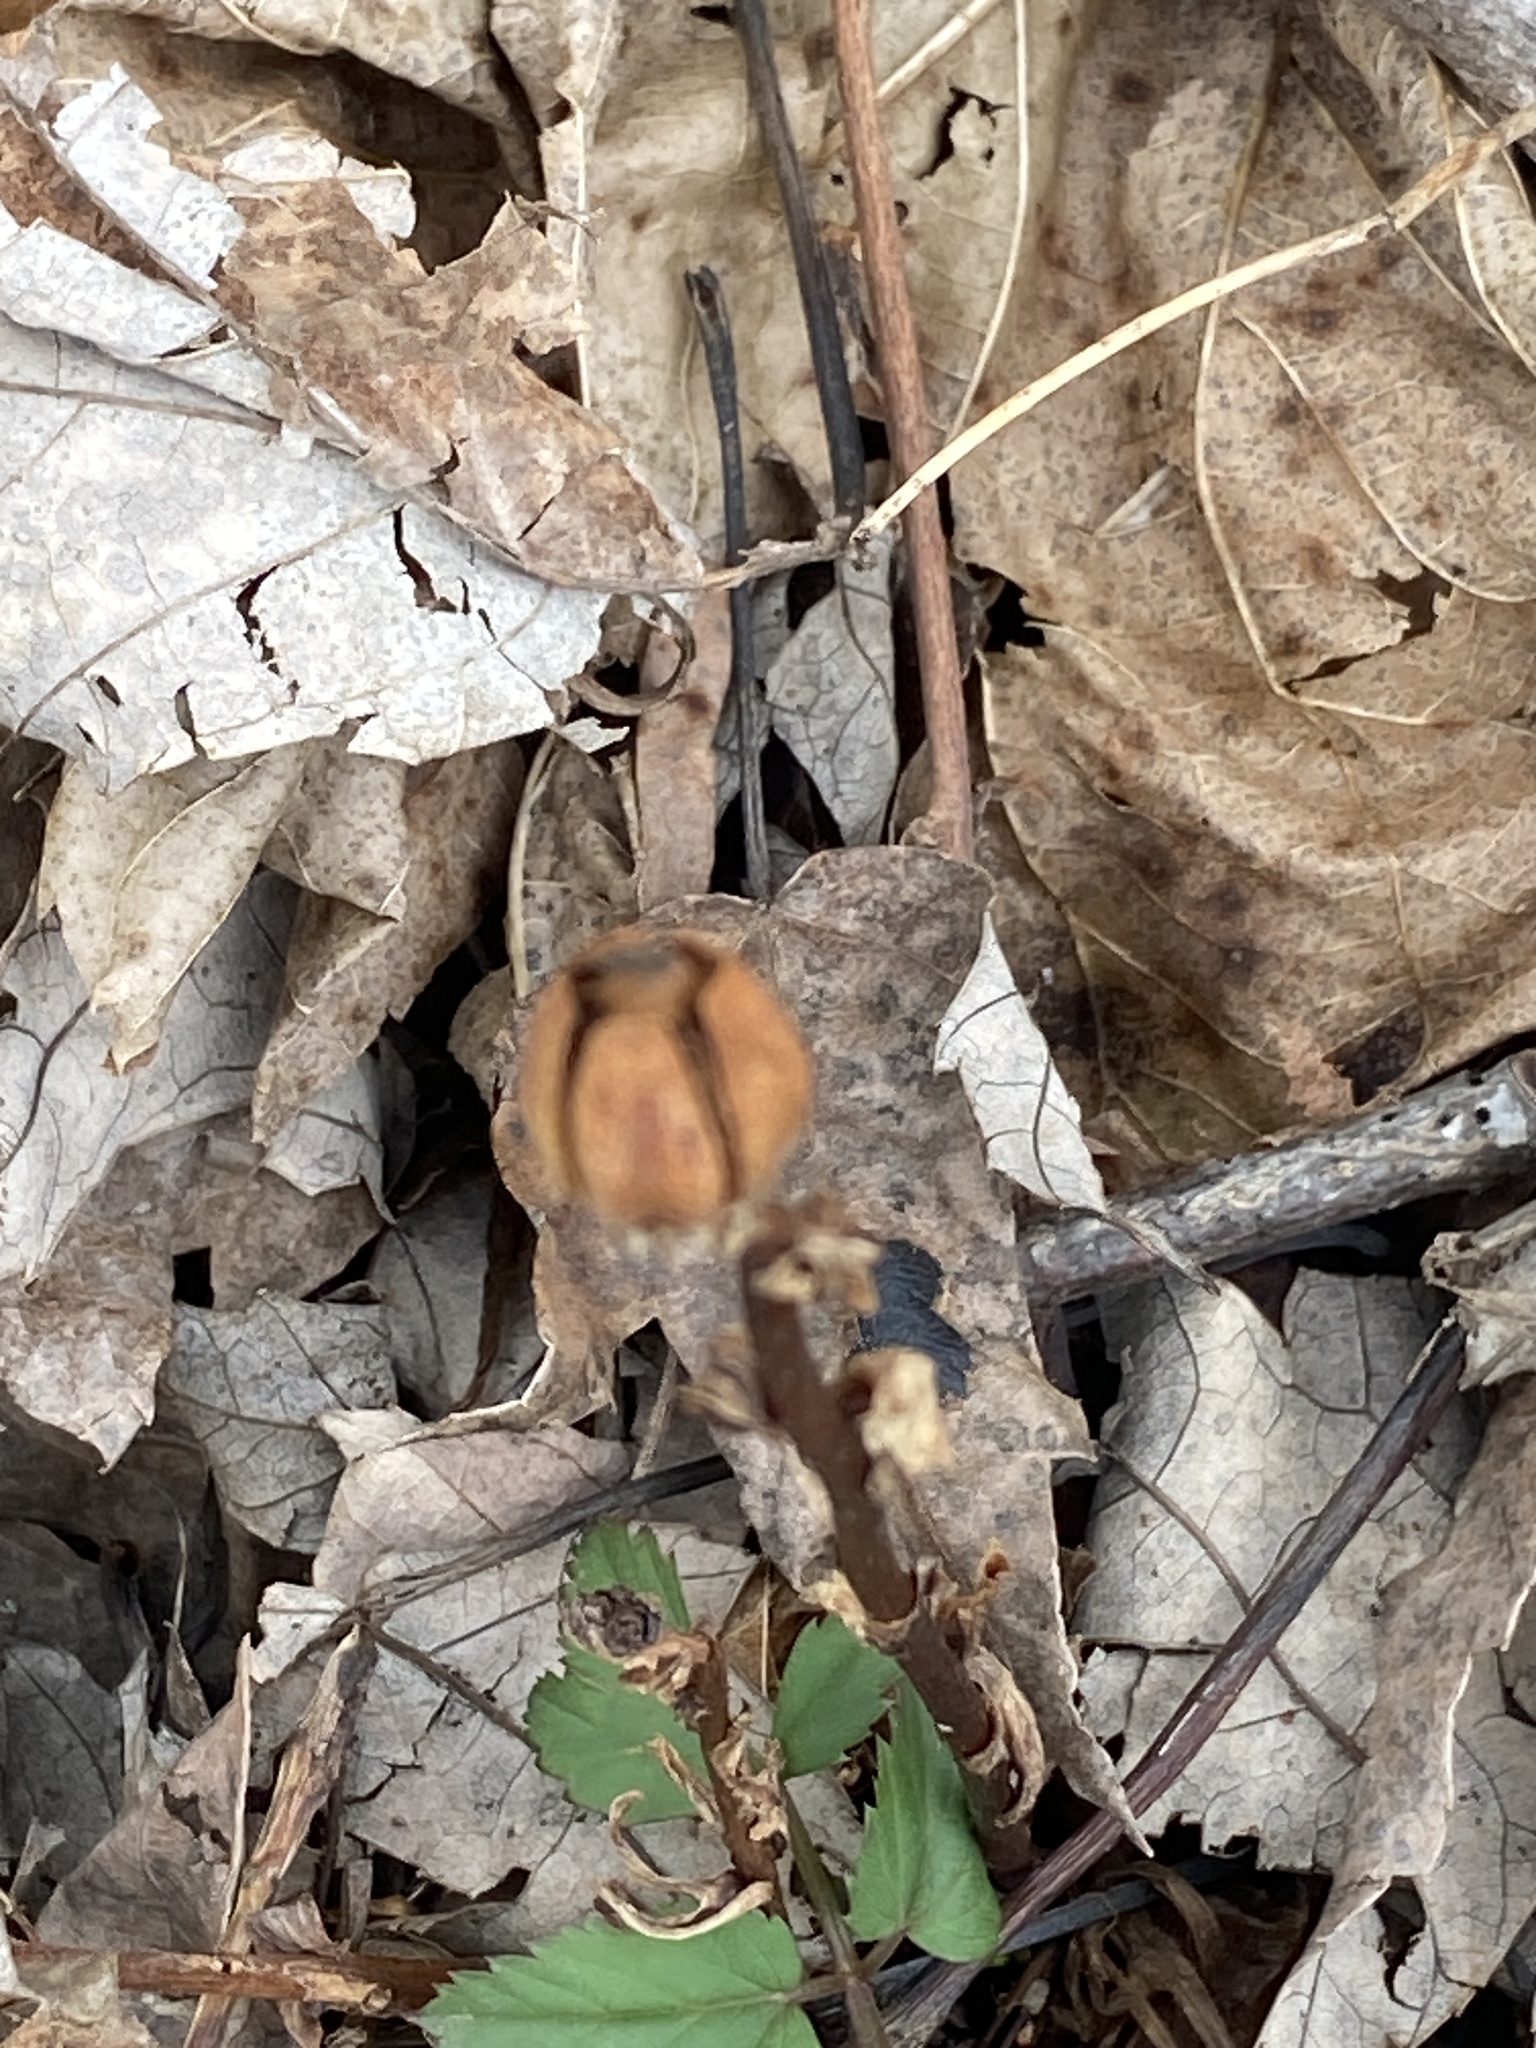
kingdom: Plantae
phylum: Tracheophyta
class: Magnoliopsida
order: Ericales
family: Ericaceae
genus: Monotropa
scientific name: Monotropa uniflora
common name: Convulsion root
